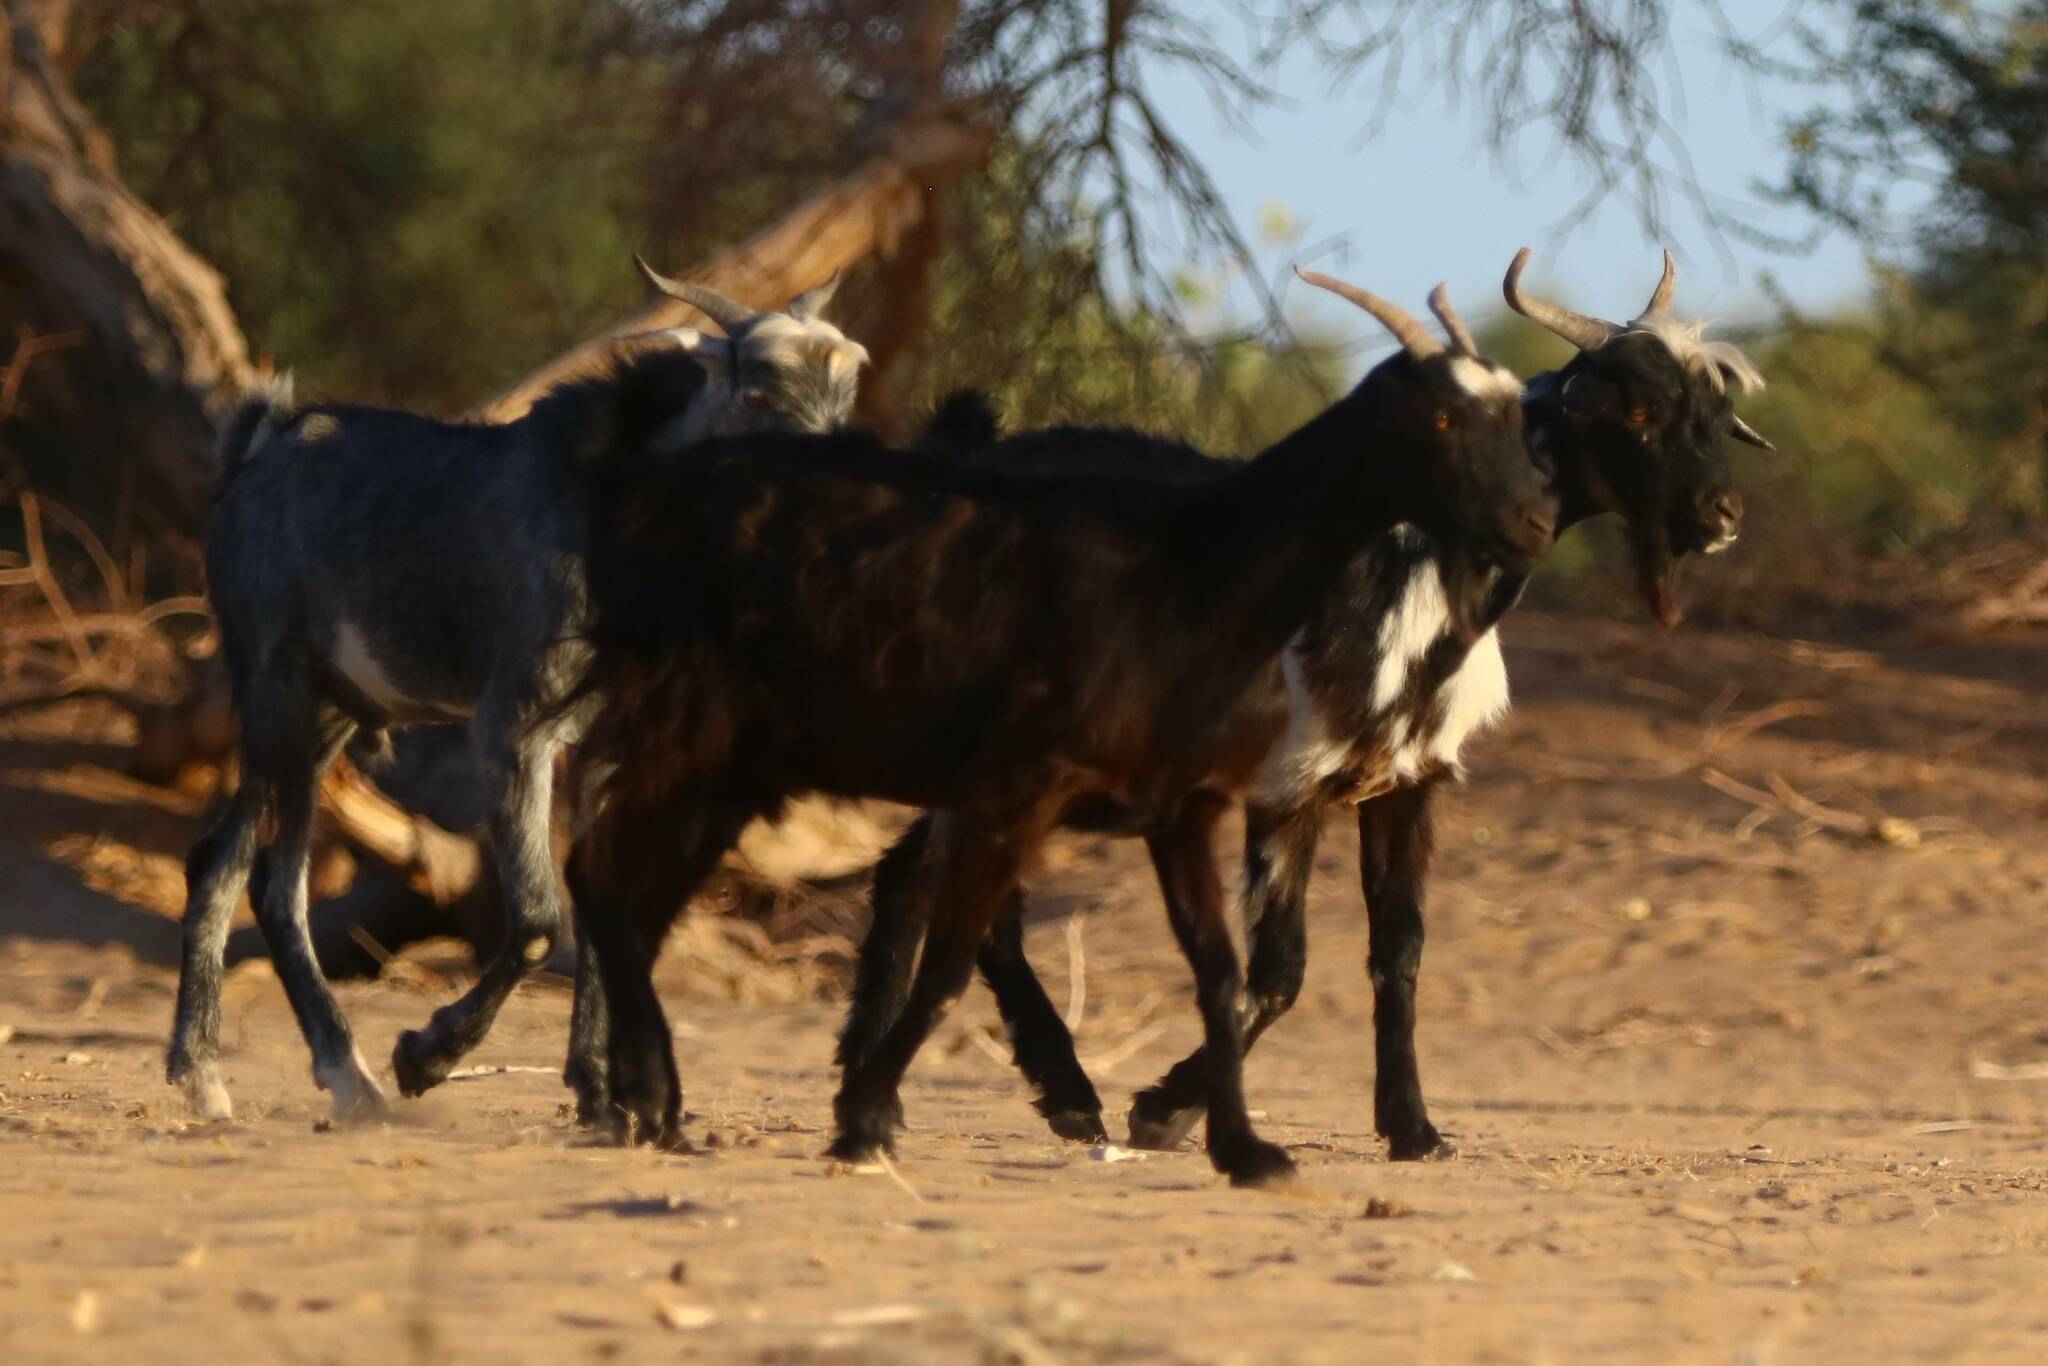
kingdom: Animalia
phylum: Chordata
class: Mammalia
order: Artiodactyla
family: Bovidae
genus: Capra
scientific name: Capra hircus
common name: Domestic goat
